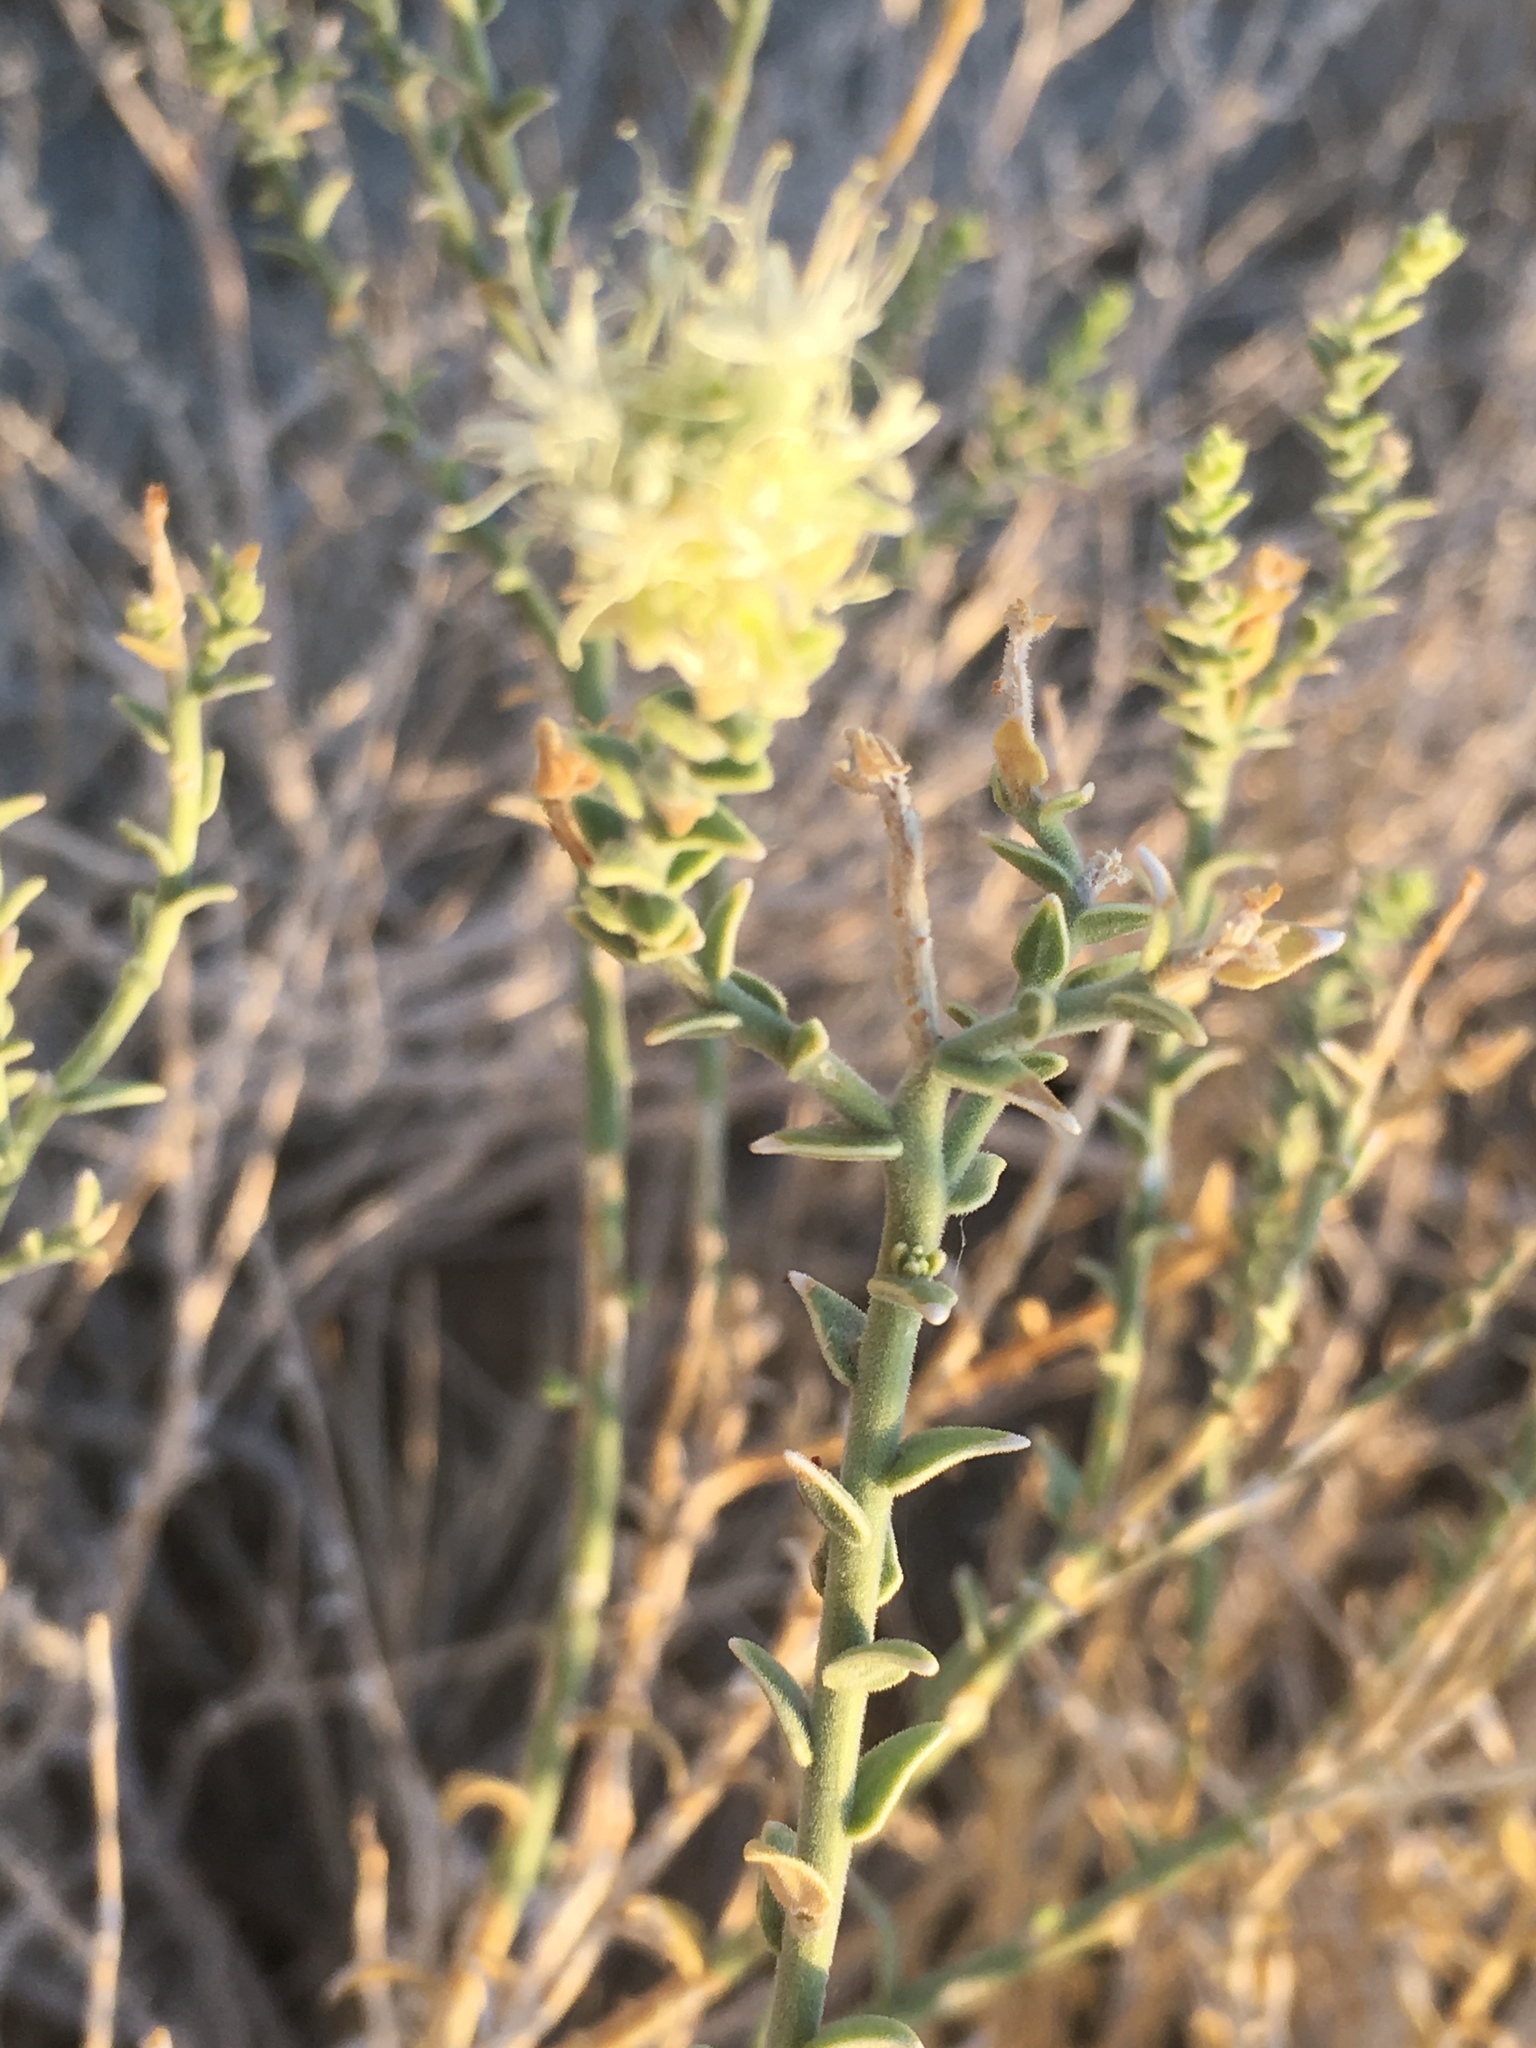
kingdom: Plantae
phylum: Tracheophyta
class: Magnoliopsida
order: Cornales
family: Loasaceae
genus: Petalonyx
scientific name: Petalonyx thurberi
